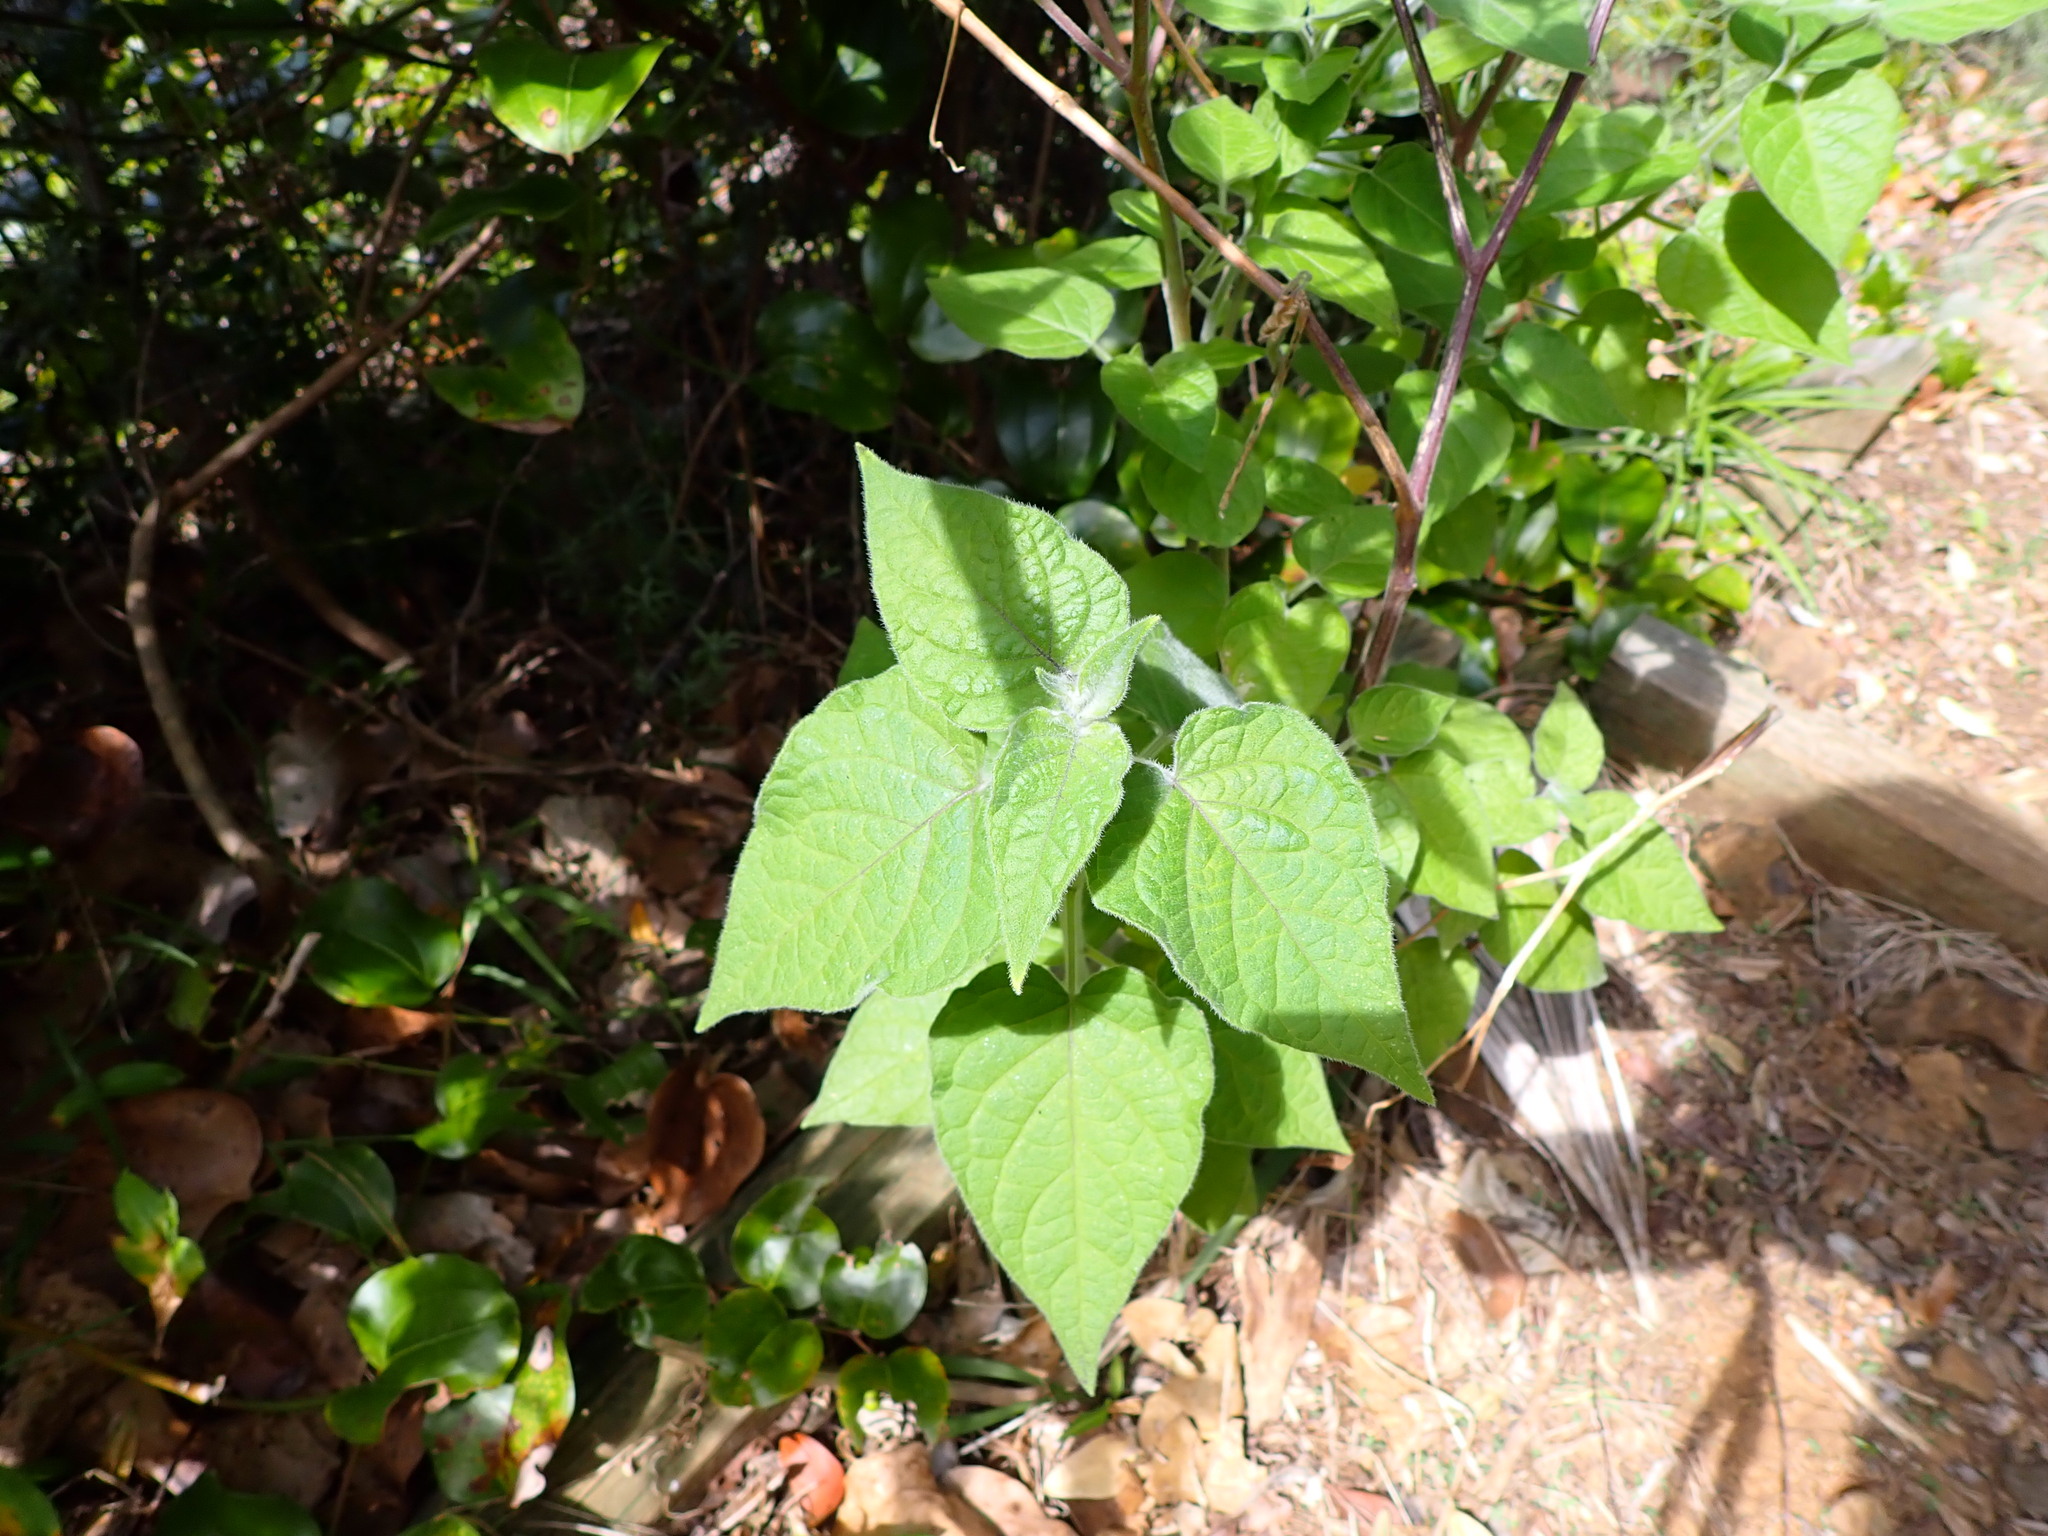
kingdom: Plantae
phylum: Tracheophyta
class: Magnoliopsida
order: Solanales
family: Solanaceae
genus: Physalis
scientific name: Physalis peruviana
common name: Cape-gooseberry
